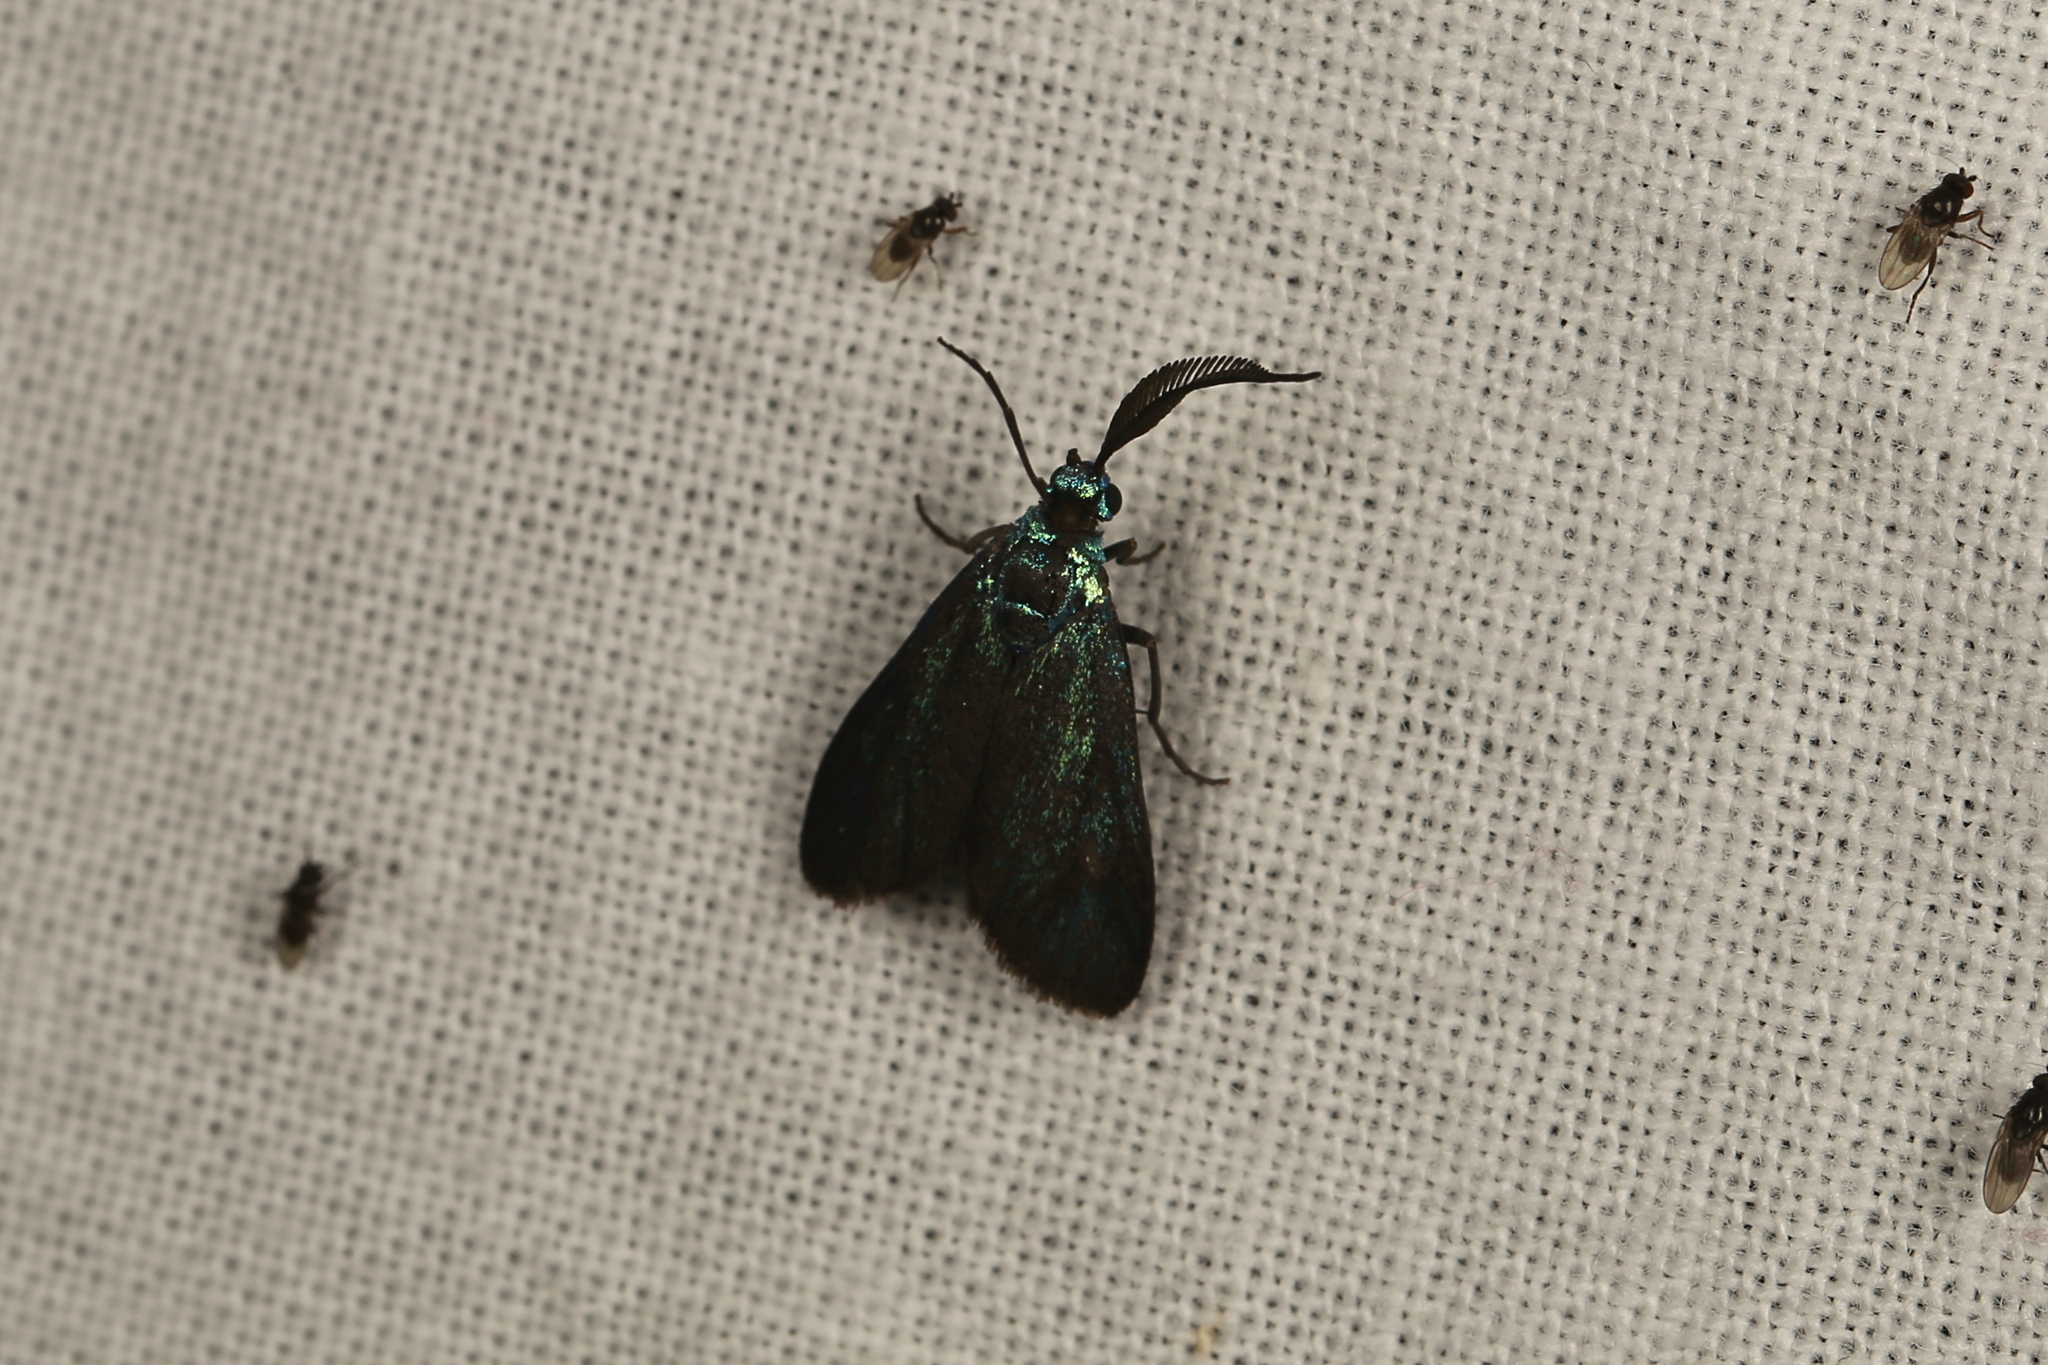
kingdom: Animalia
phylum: Arthropoda
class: Insecta
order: Lepidoptera
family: Zygaenidae
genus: Pollanisus
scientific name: Pollanisus apicalis
